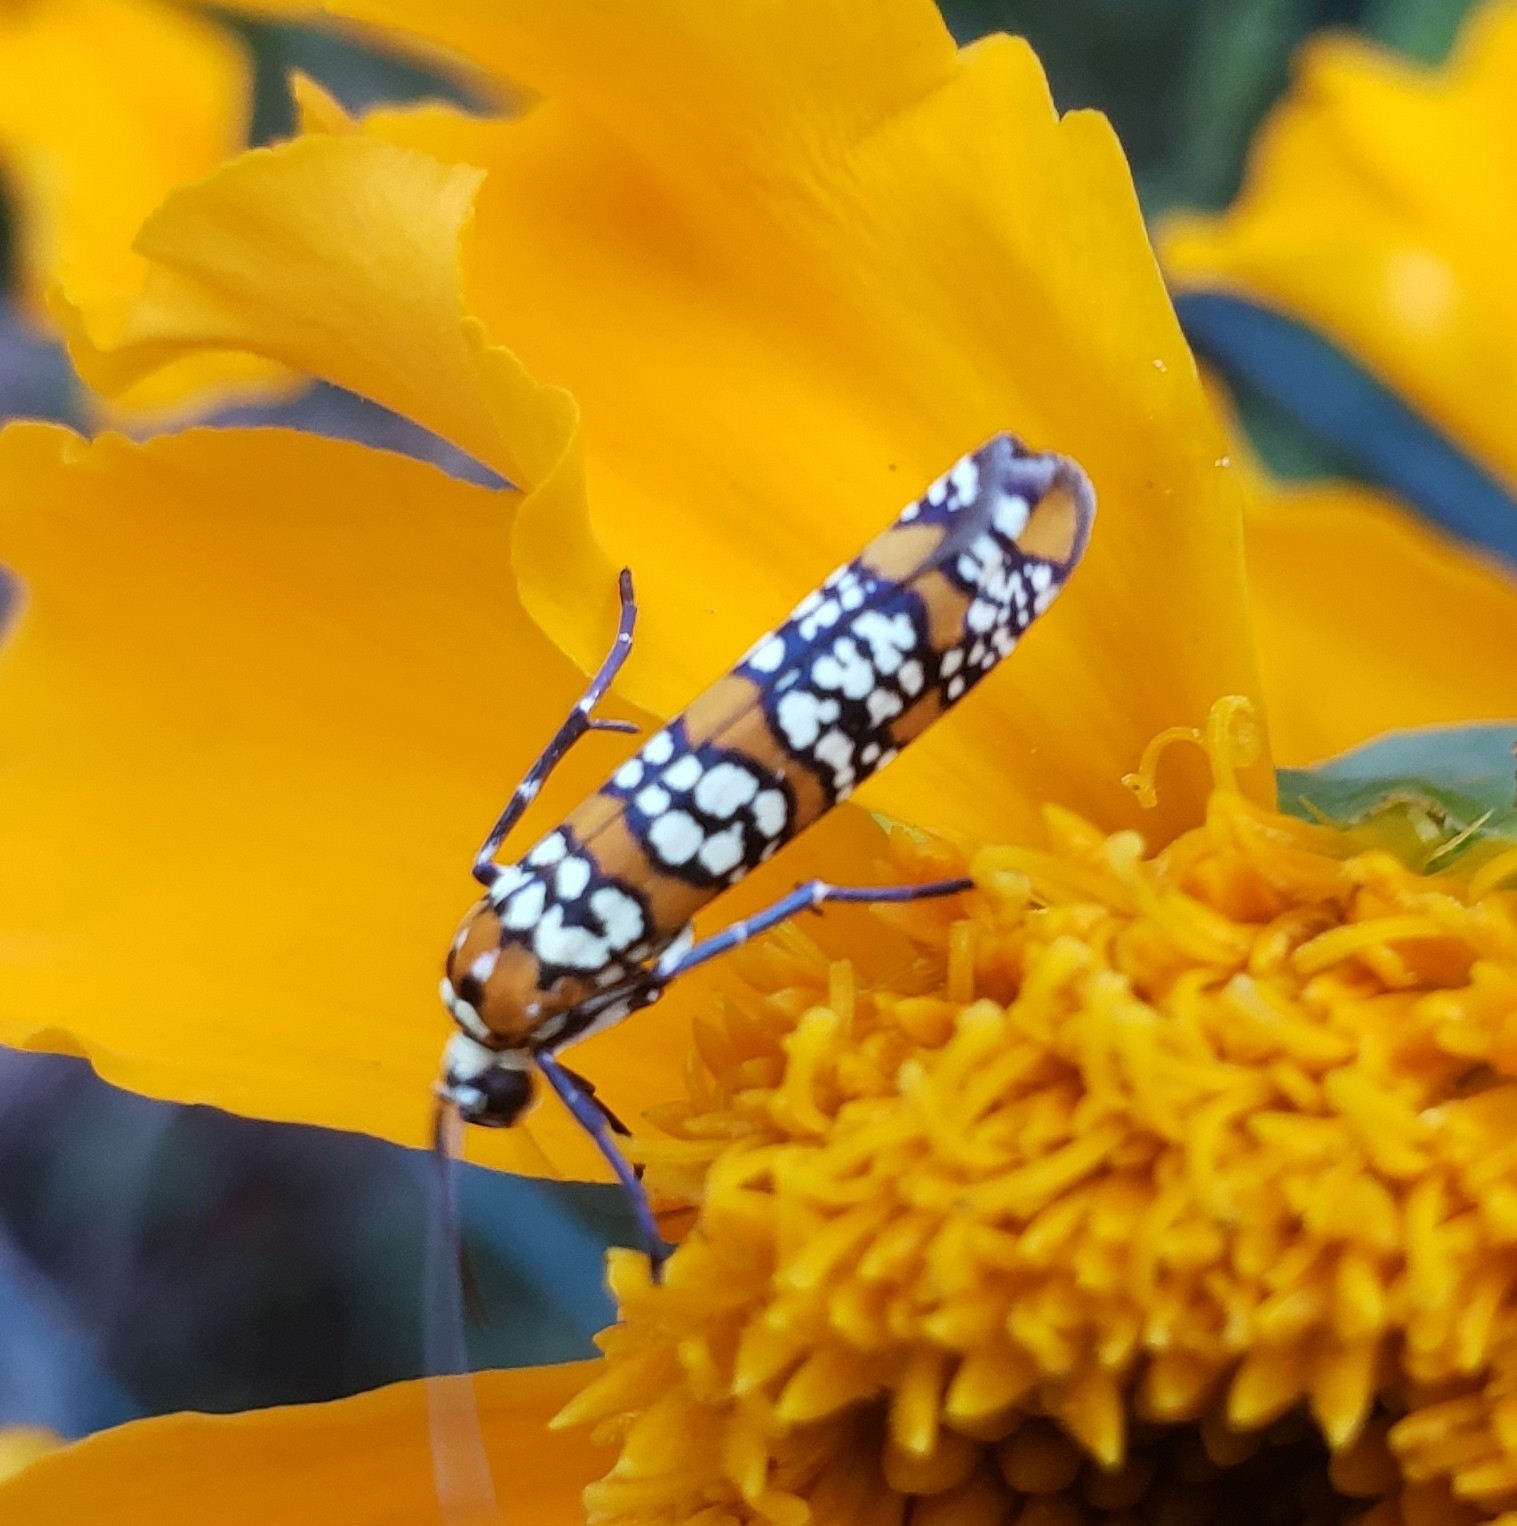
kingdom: Animalia
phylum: Arthropoda
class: Insecta
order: Lepidoptera
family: Attevidae
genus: Atteva
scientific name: Atteva punctella
